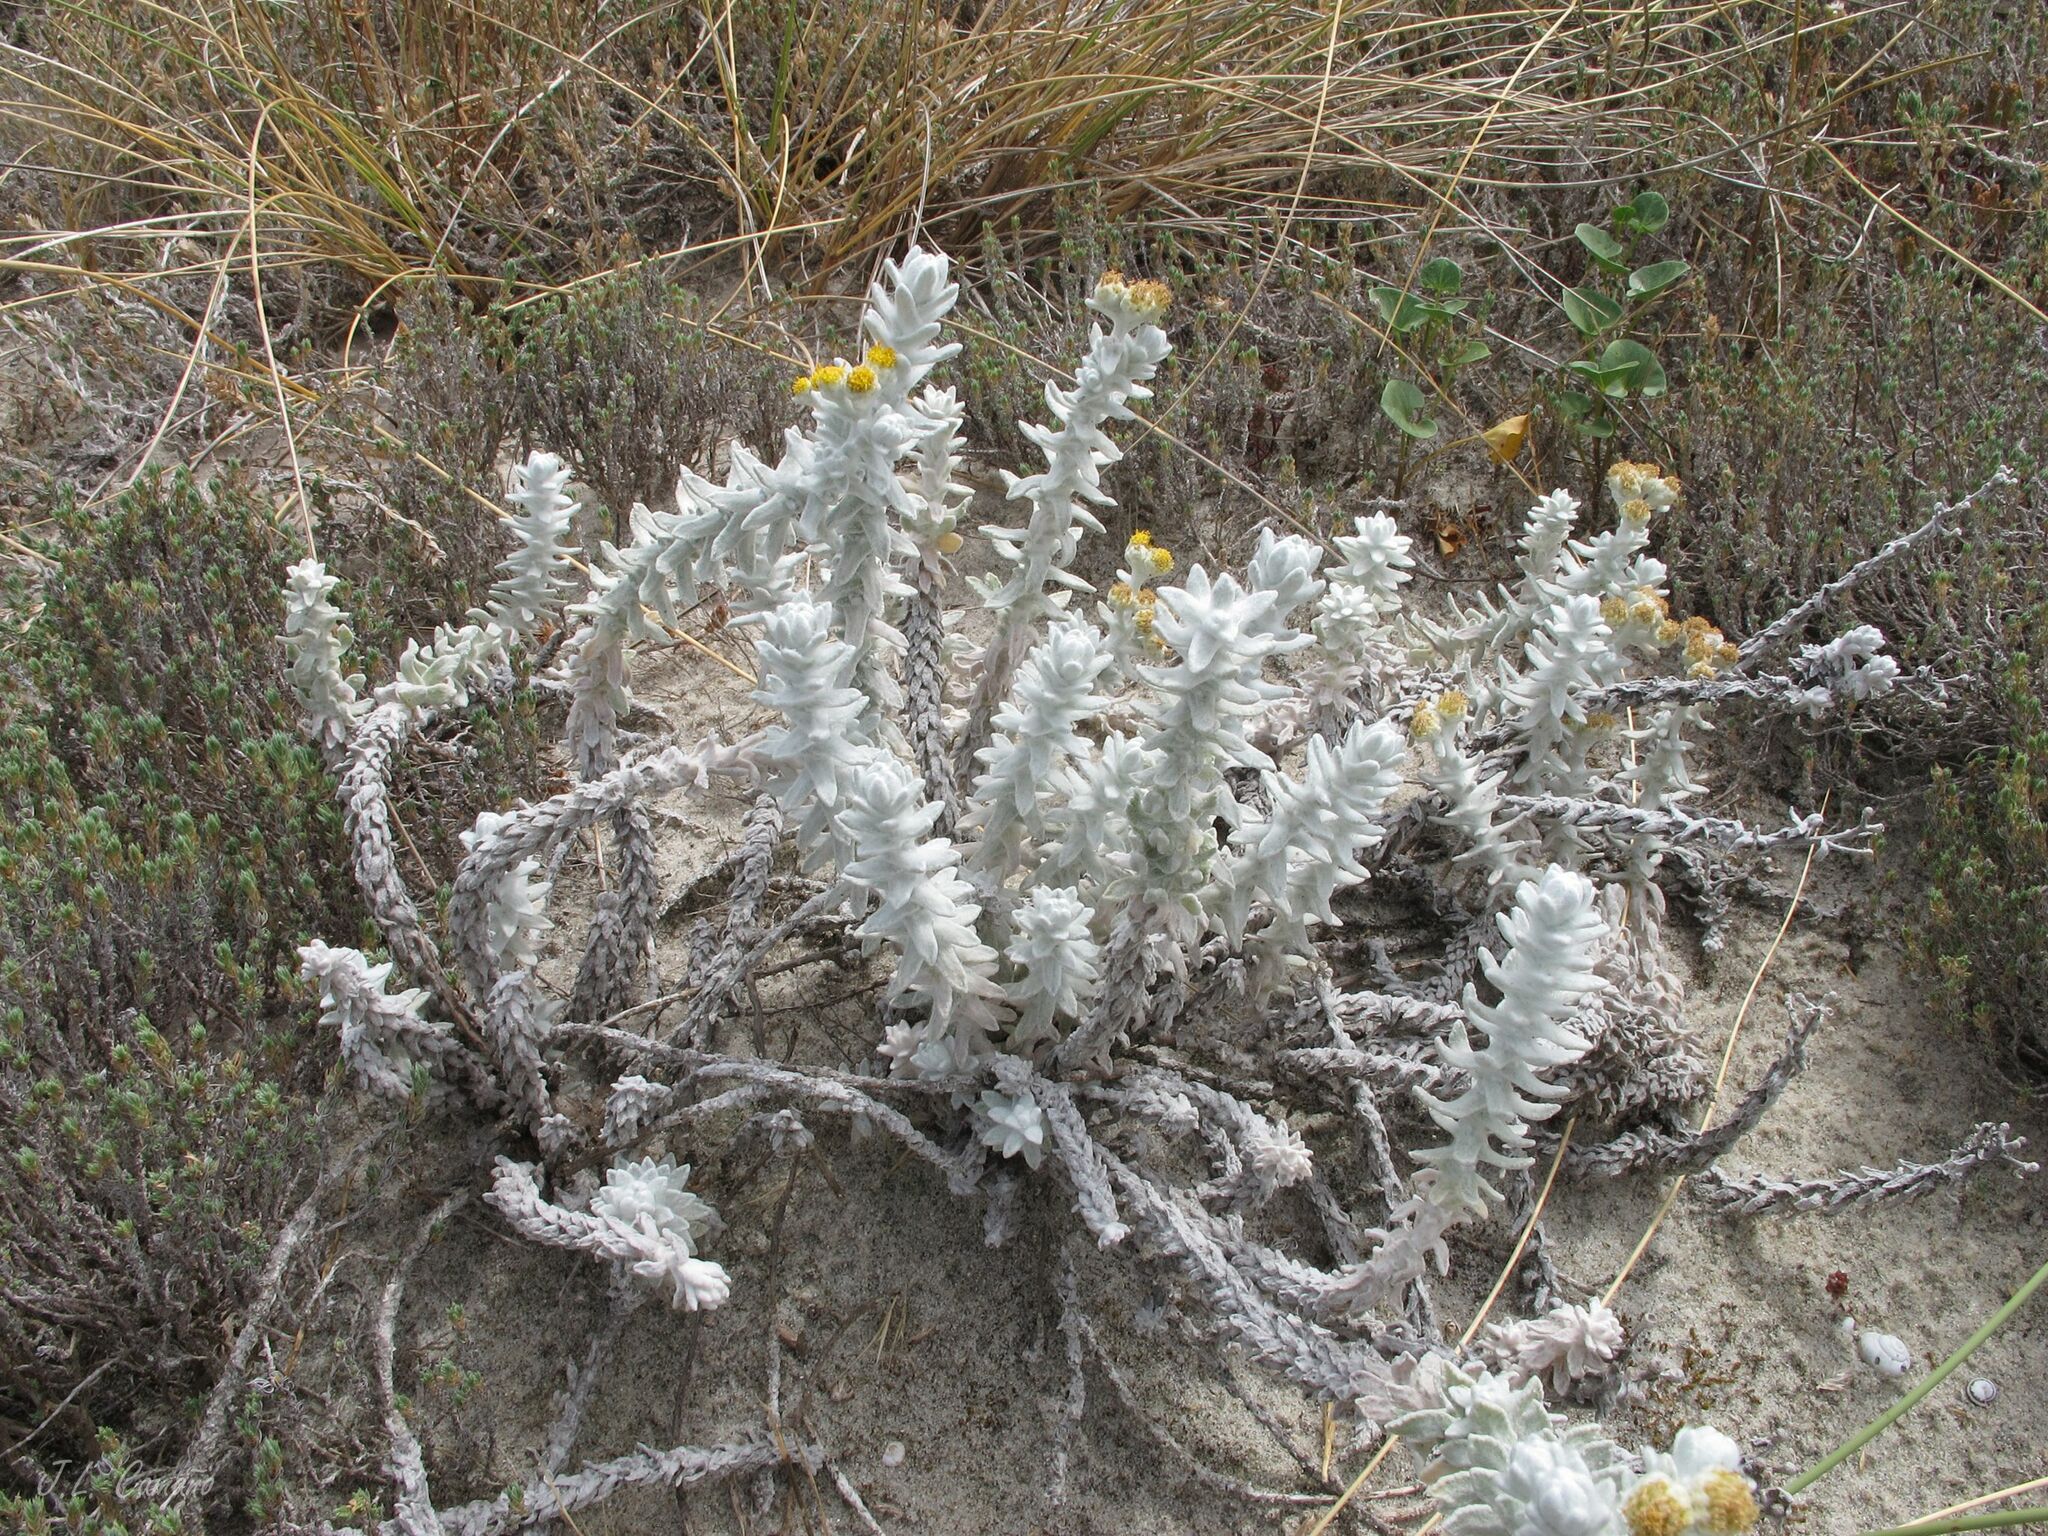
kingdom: Plantae
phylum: Tracheophyta
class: Magnoliopsida
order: Asterales
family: Asteraceae
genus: Achillea
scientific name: Achillea maritima
